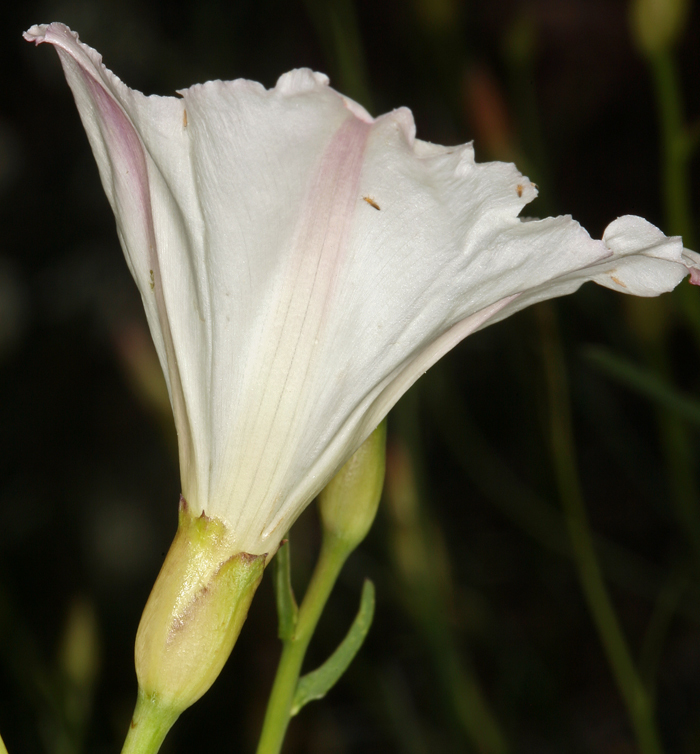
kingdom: Plantae
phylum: Tracheophyta
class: Magnoliopsida
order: Solanales
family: Convolvulaceae
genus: Calystegia
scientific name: Calystegia longipes
